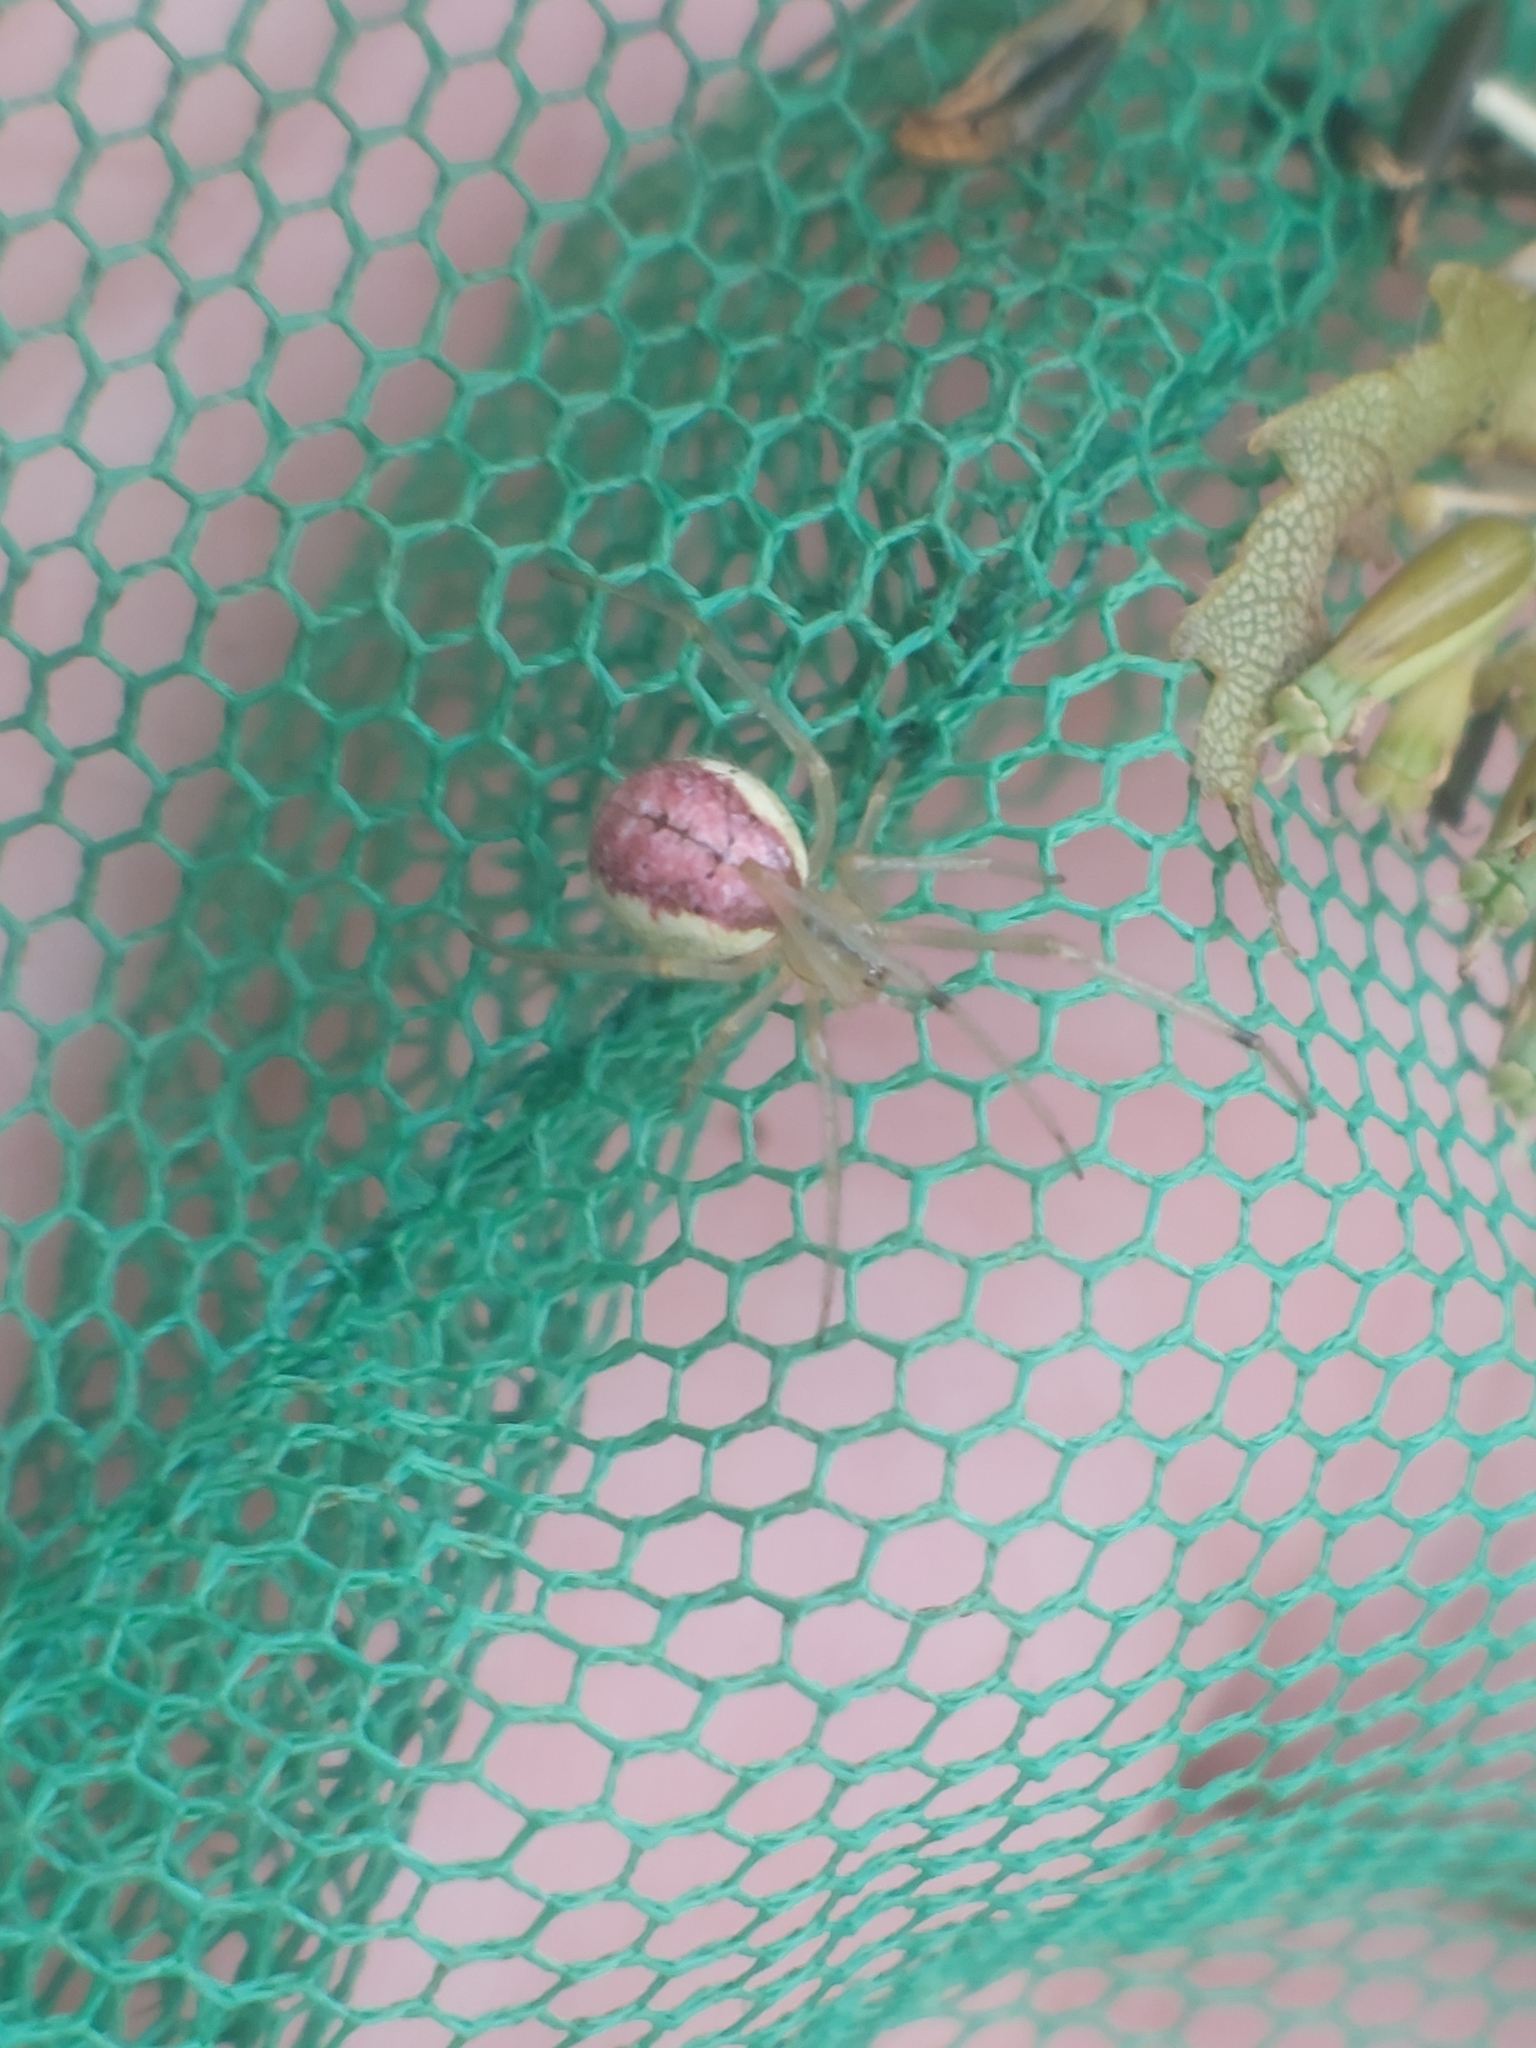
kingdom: Animalia
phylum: Arthropoda
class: Arachnida
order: Araneae
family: Theridiidae
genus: Enoplognatha
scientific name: Enoplognatha ovata
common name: Common candy-striped spider
